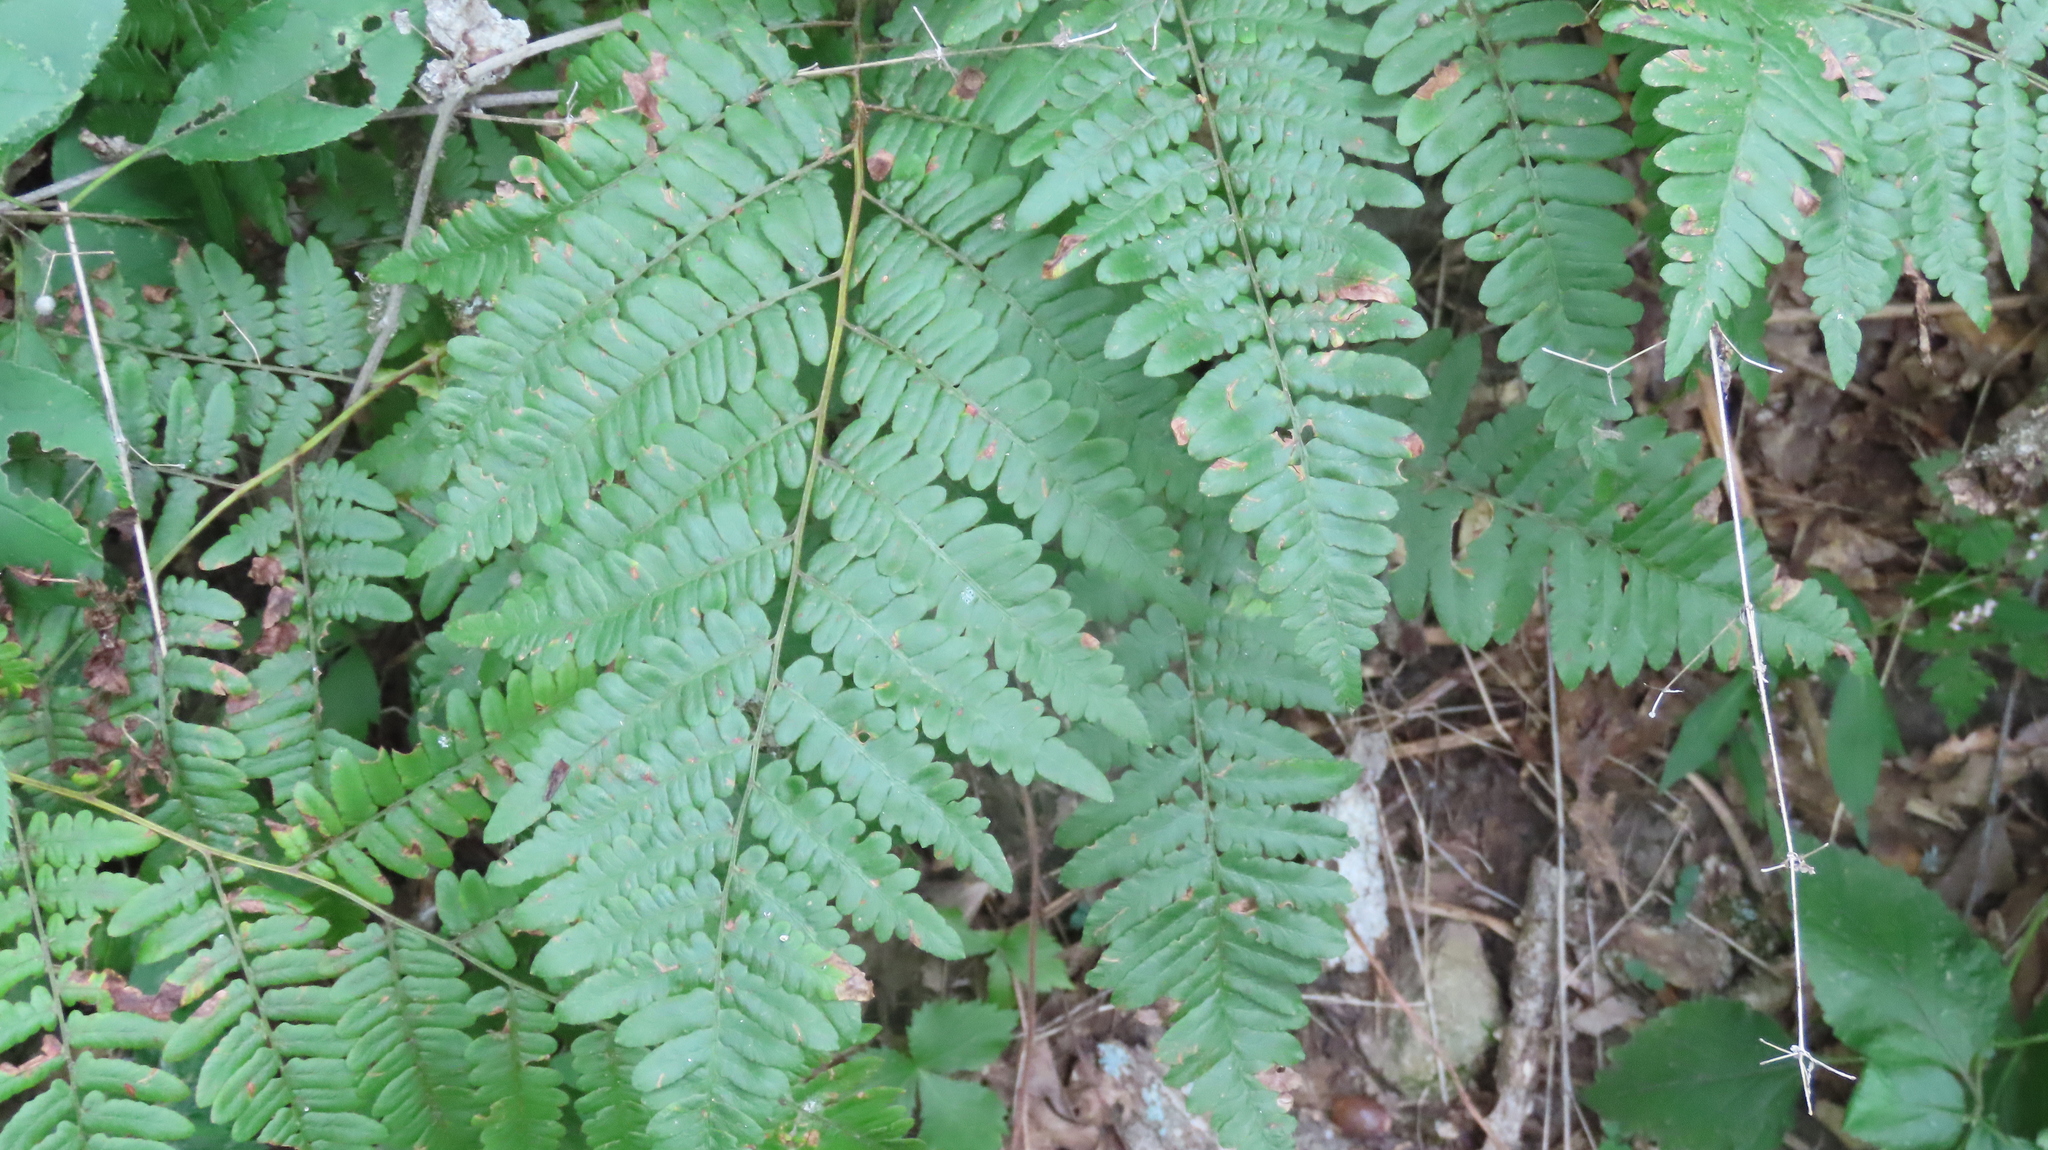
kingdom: Plantae
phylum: Tracheophyta
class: Polypodiopsida
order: Polypodiales
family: Dennstaedtiaceae
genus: Pteridium
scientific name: Pteridium aquilinum
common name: Bracken
